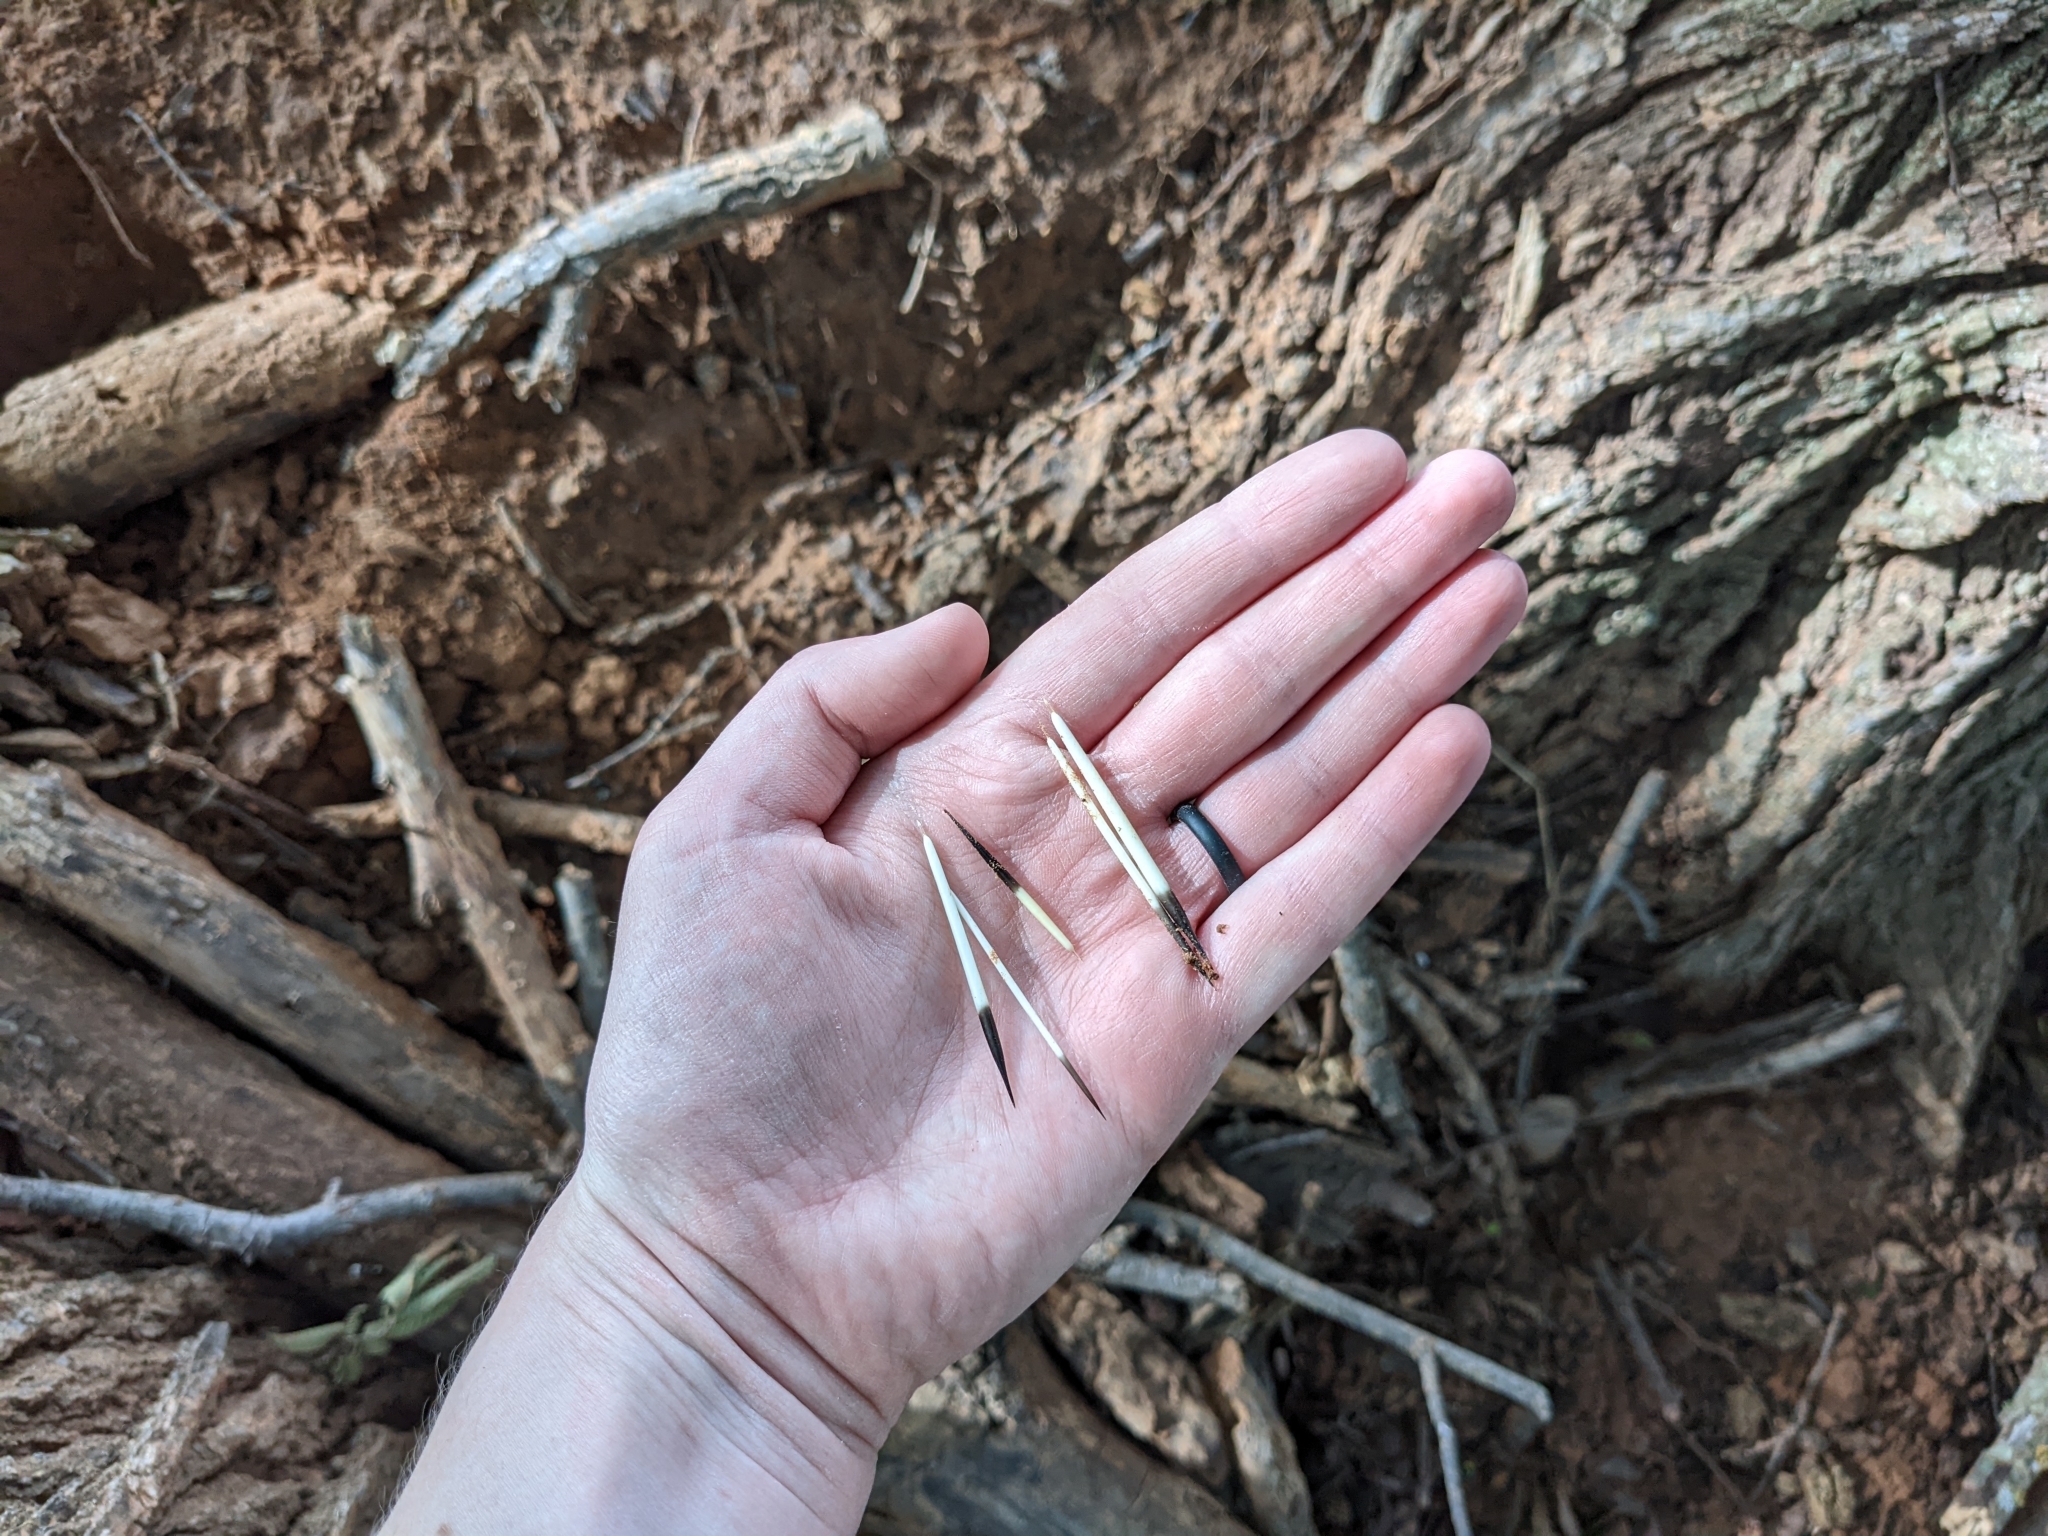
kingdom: Animalia
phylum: Chordata
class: Mammalia
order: Rodentia
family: Erethizontidae
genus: Erethizon
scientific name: Erethizon dorsatus
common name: North american porcupine
